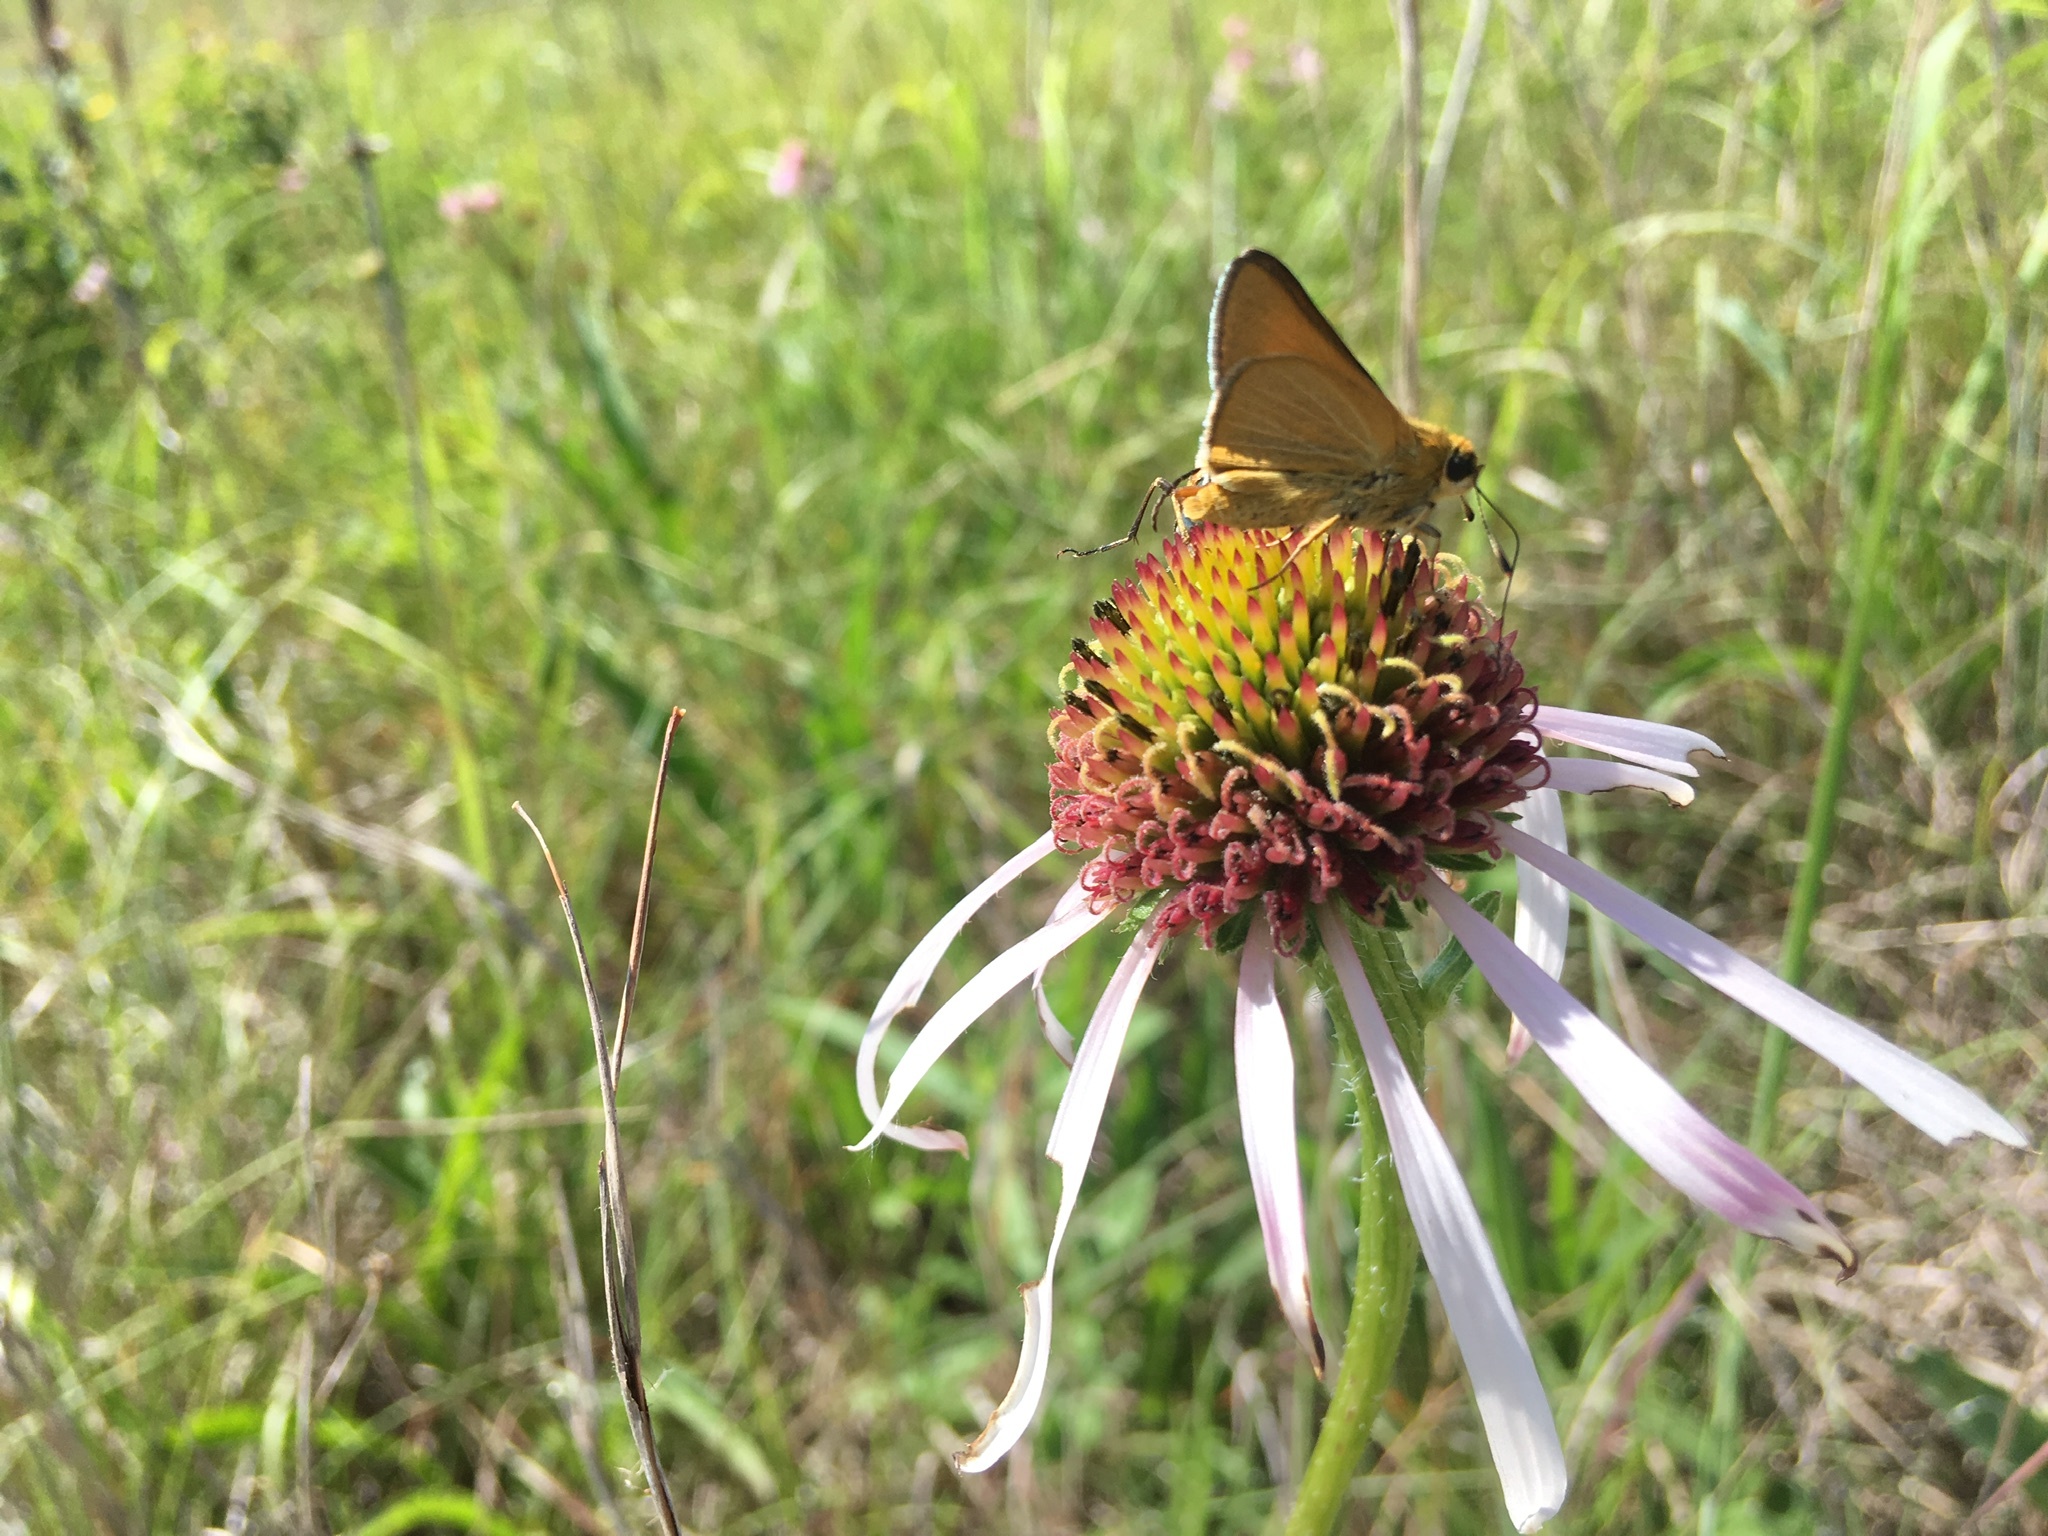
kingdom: Animalia
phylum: Arthropoda
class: Insecta
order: Lepidoptera
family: Hesperiidae
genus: Atrytone
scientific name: Atrytone arogos
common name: Arogos skipper
